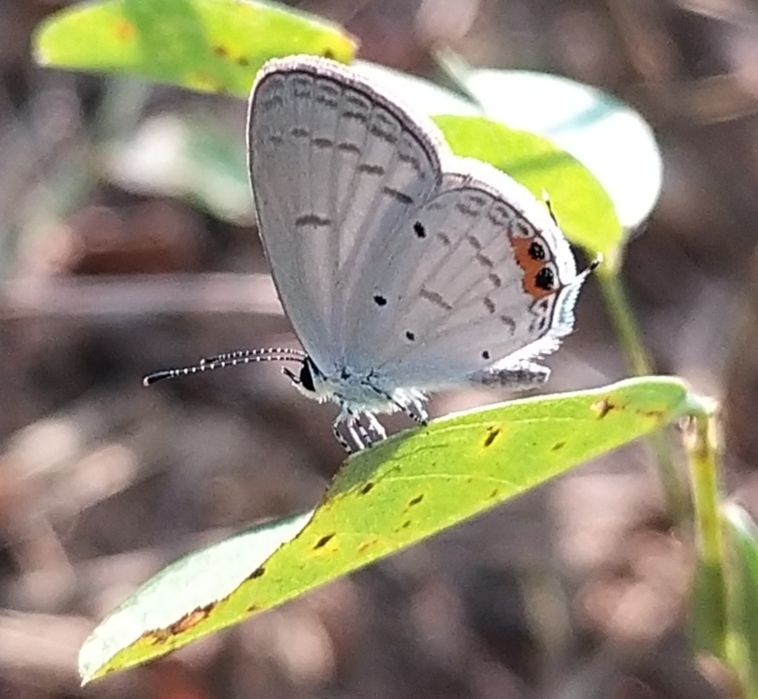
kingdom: Animalia
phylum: Arthropoda
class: Insecta
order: Lepidoptera
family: Lycaenidae
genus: Everes
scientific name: Everes lacturnus
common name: Orange-tipped pea-blue
